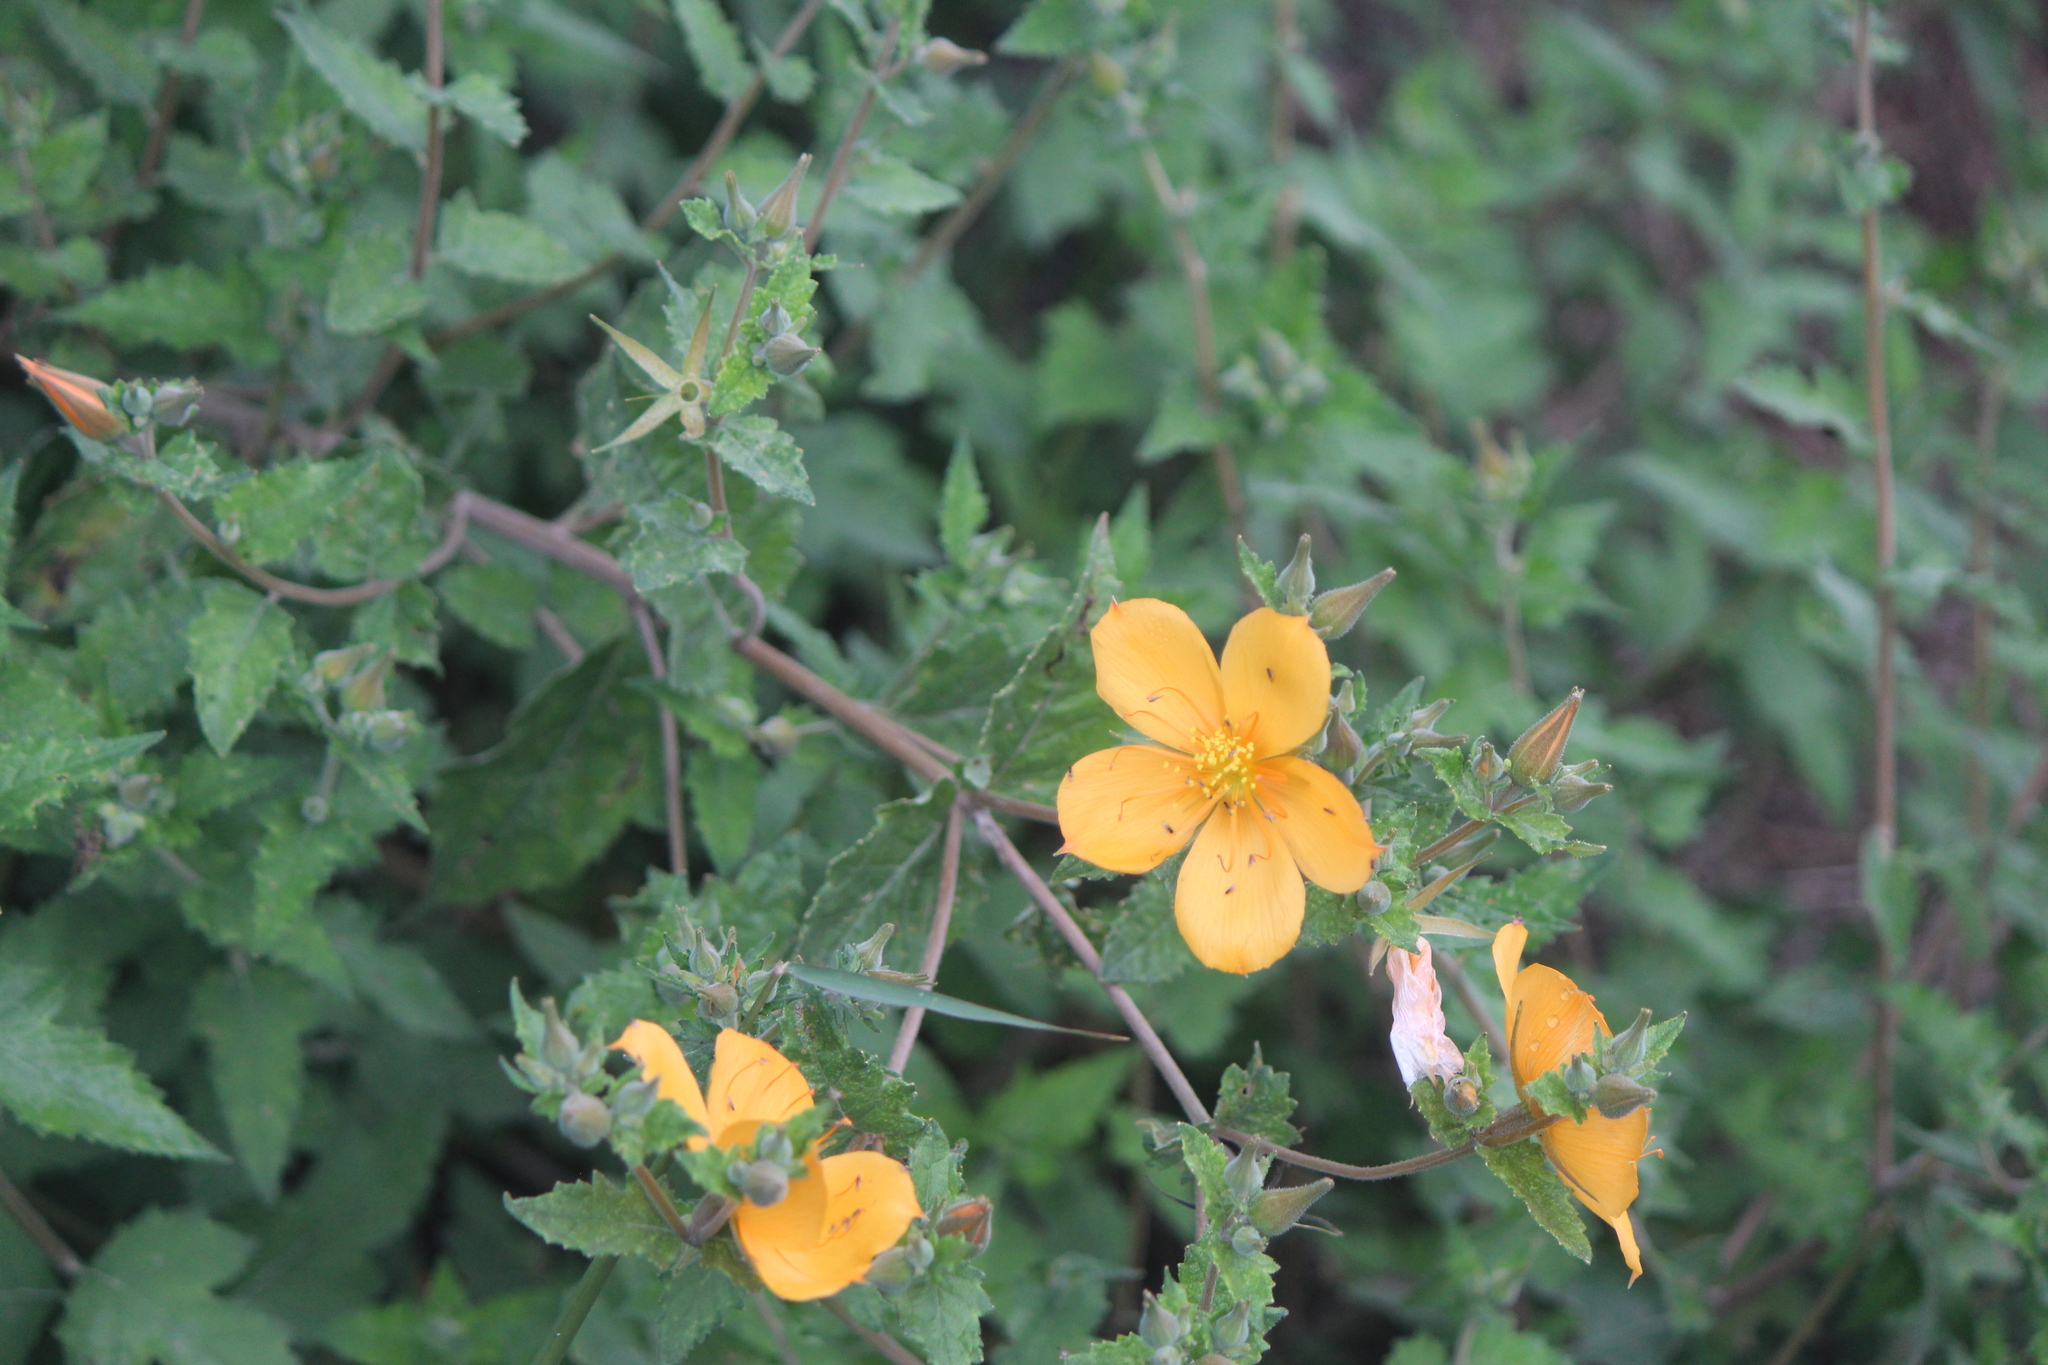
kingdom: Plantae
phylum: Tracheophyta
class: Magnoliopsida
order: Cornales
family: Loasaceae
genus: Mentzelia
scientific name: Mentzelia hispida
